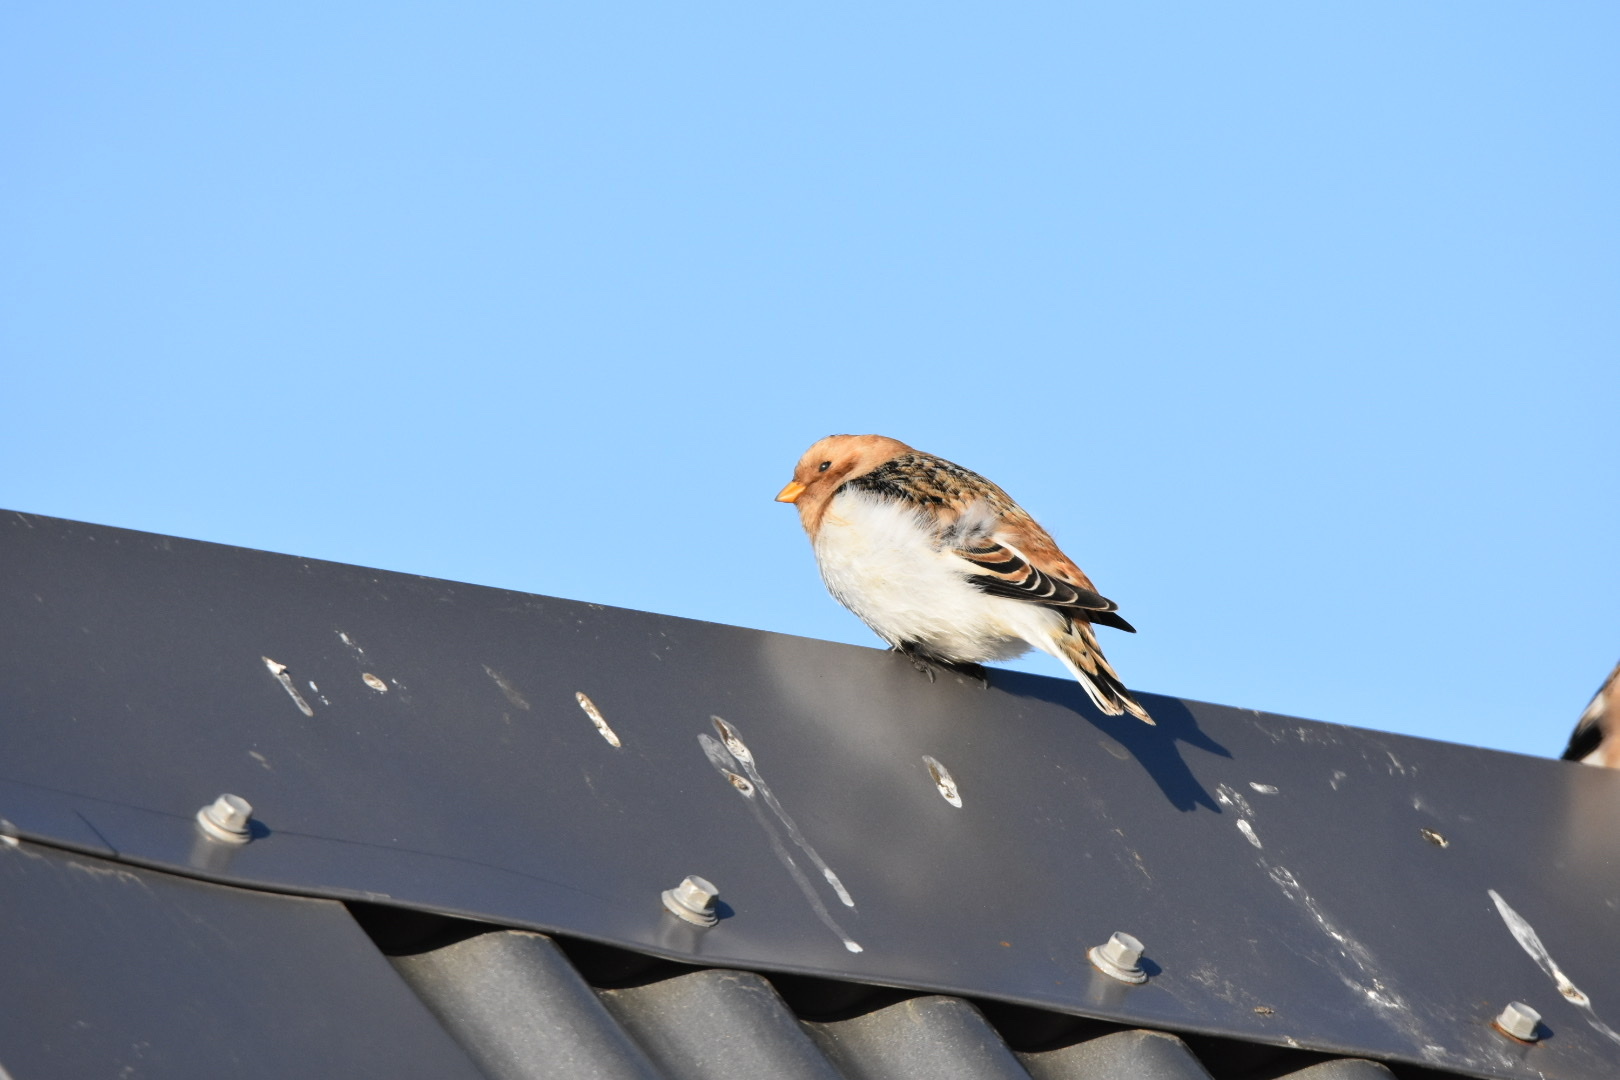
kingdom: Animalia
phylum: Chordata
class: Aves
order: Passeriformes
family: Calcariidae
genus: Plectrophenax
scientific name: Plectrophenax nivalis
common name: Snow bunting
